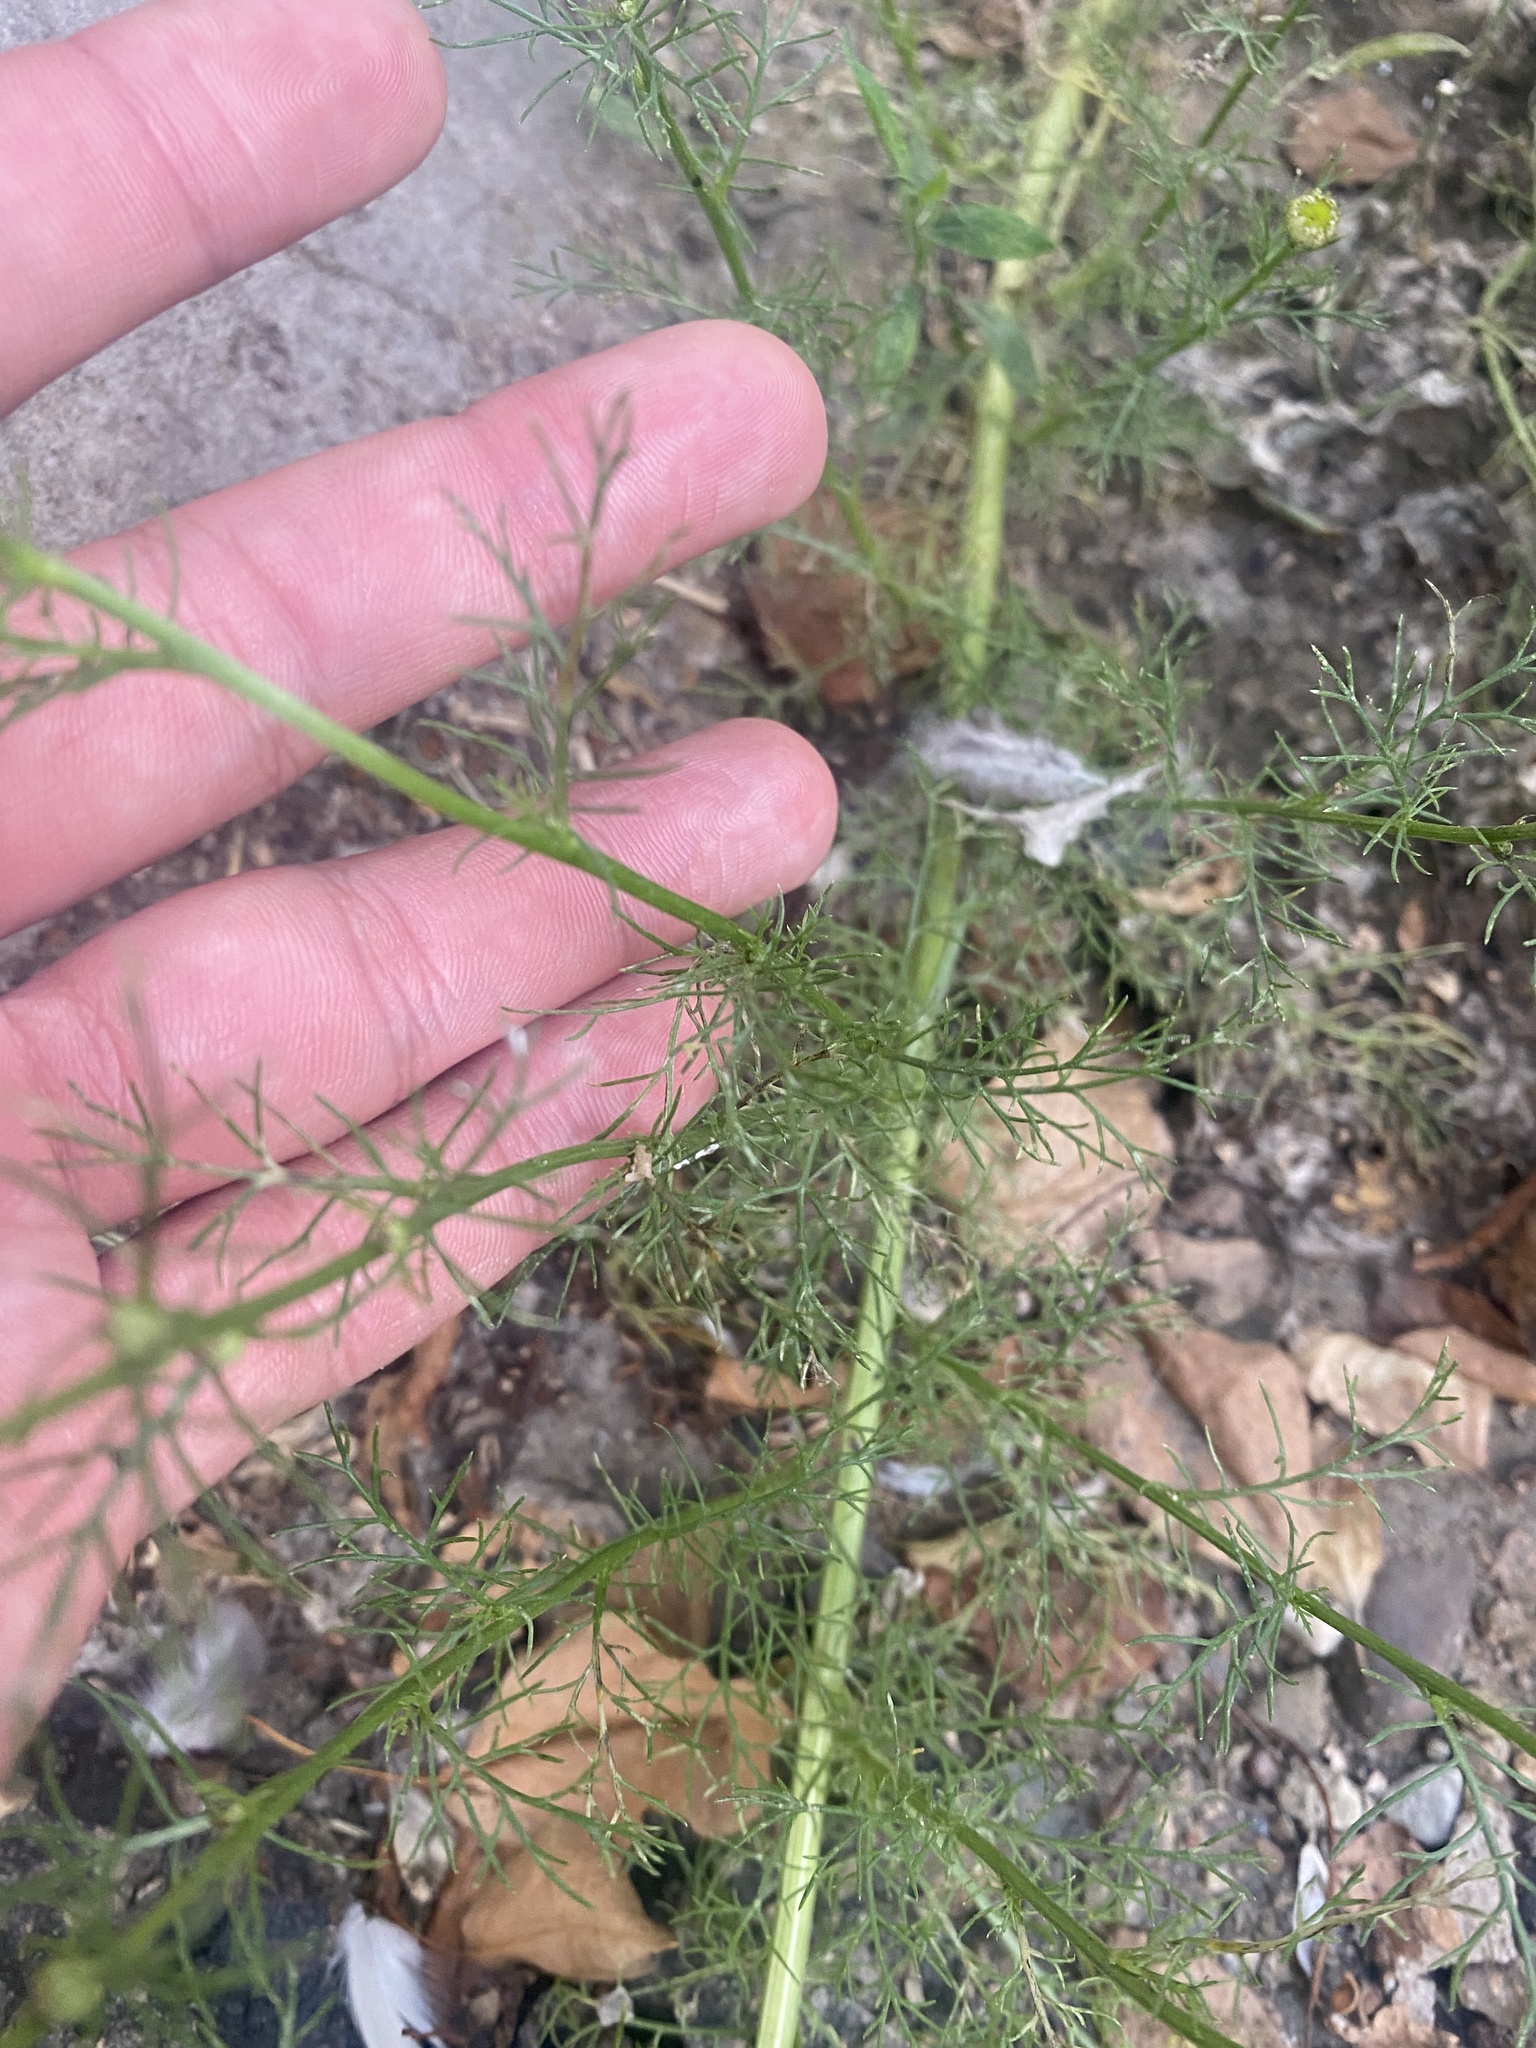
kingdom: Plantae
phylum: Tracheophyta
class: Magnoliopsida
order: Asterales
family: Asteraceae
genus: Tripleurospermum
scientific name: Tripleurospermum inodorum
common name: Scentless mayweed
